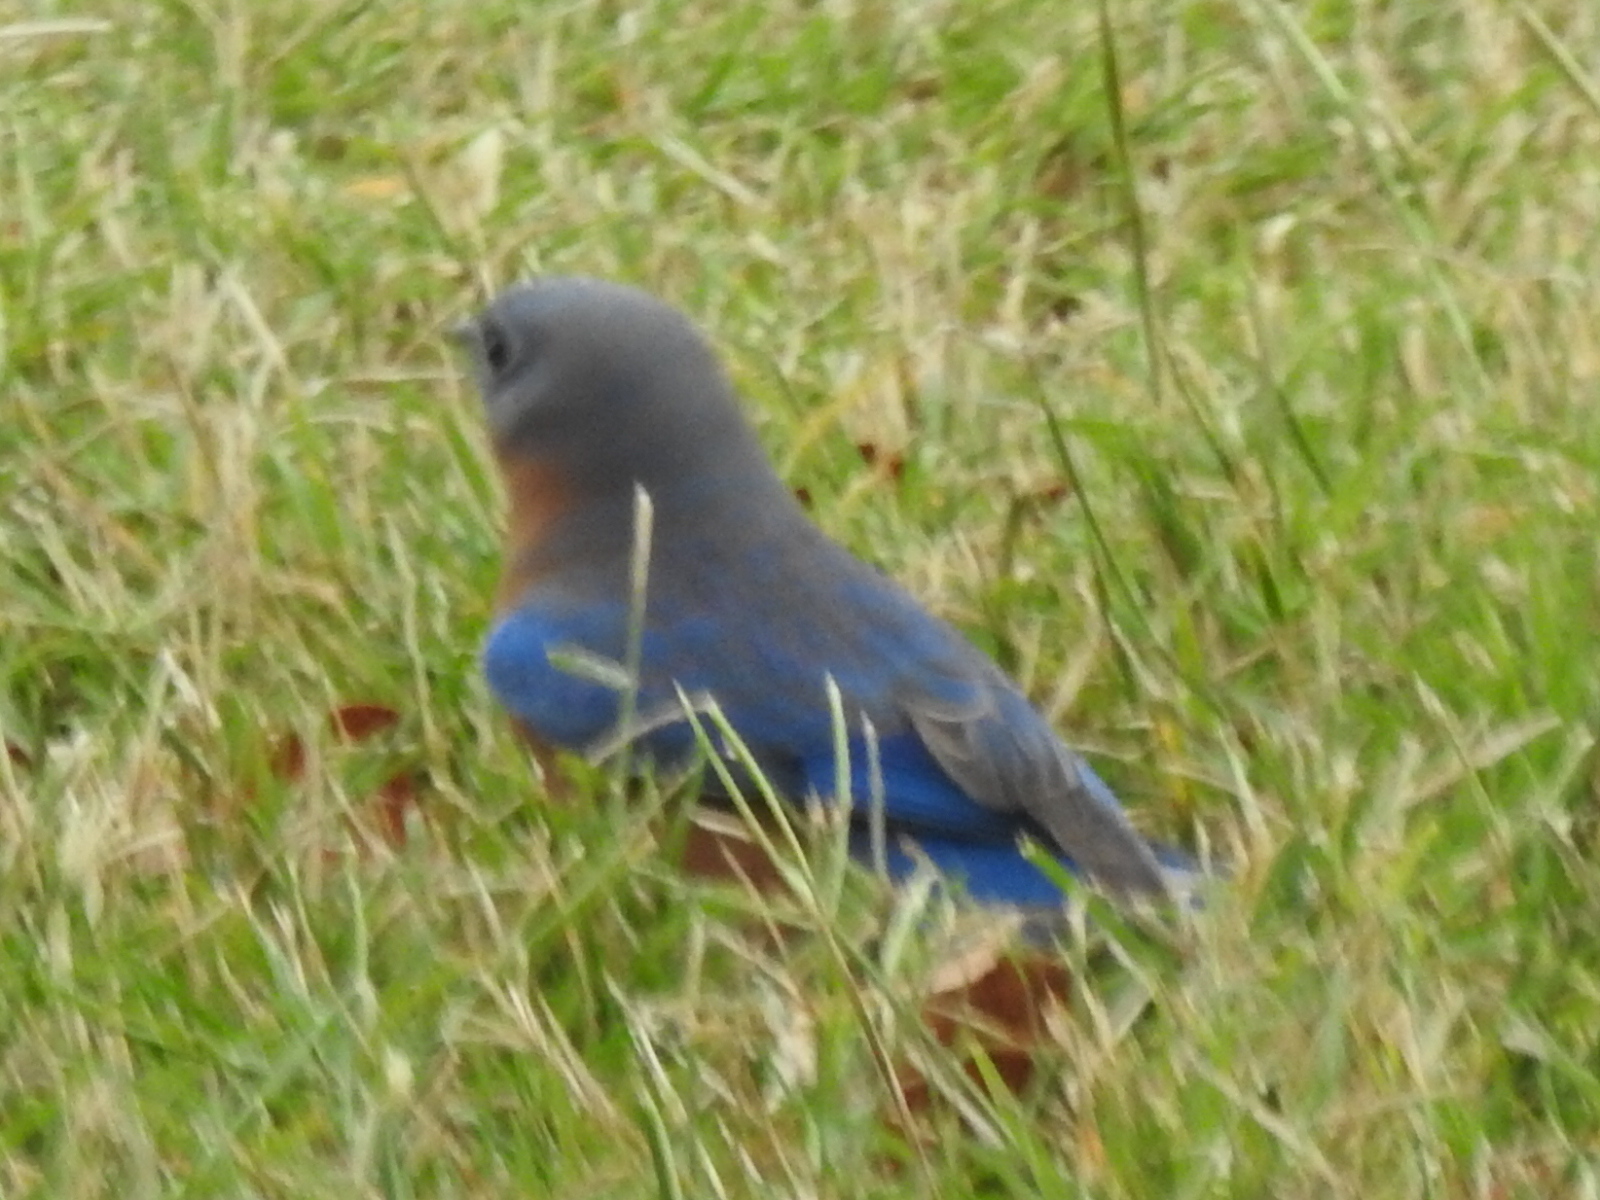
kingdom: Animalia
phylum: Chordata
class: Aves
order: Passeriformes
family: Turdidae
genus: Sialia
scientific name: Sialia sialis
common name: Eastern bluebird
